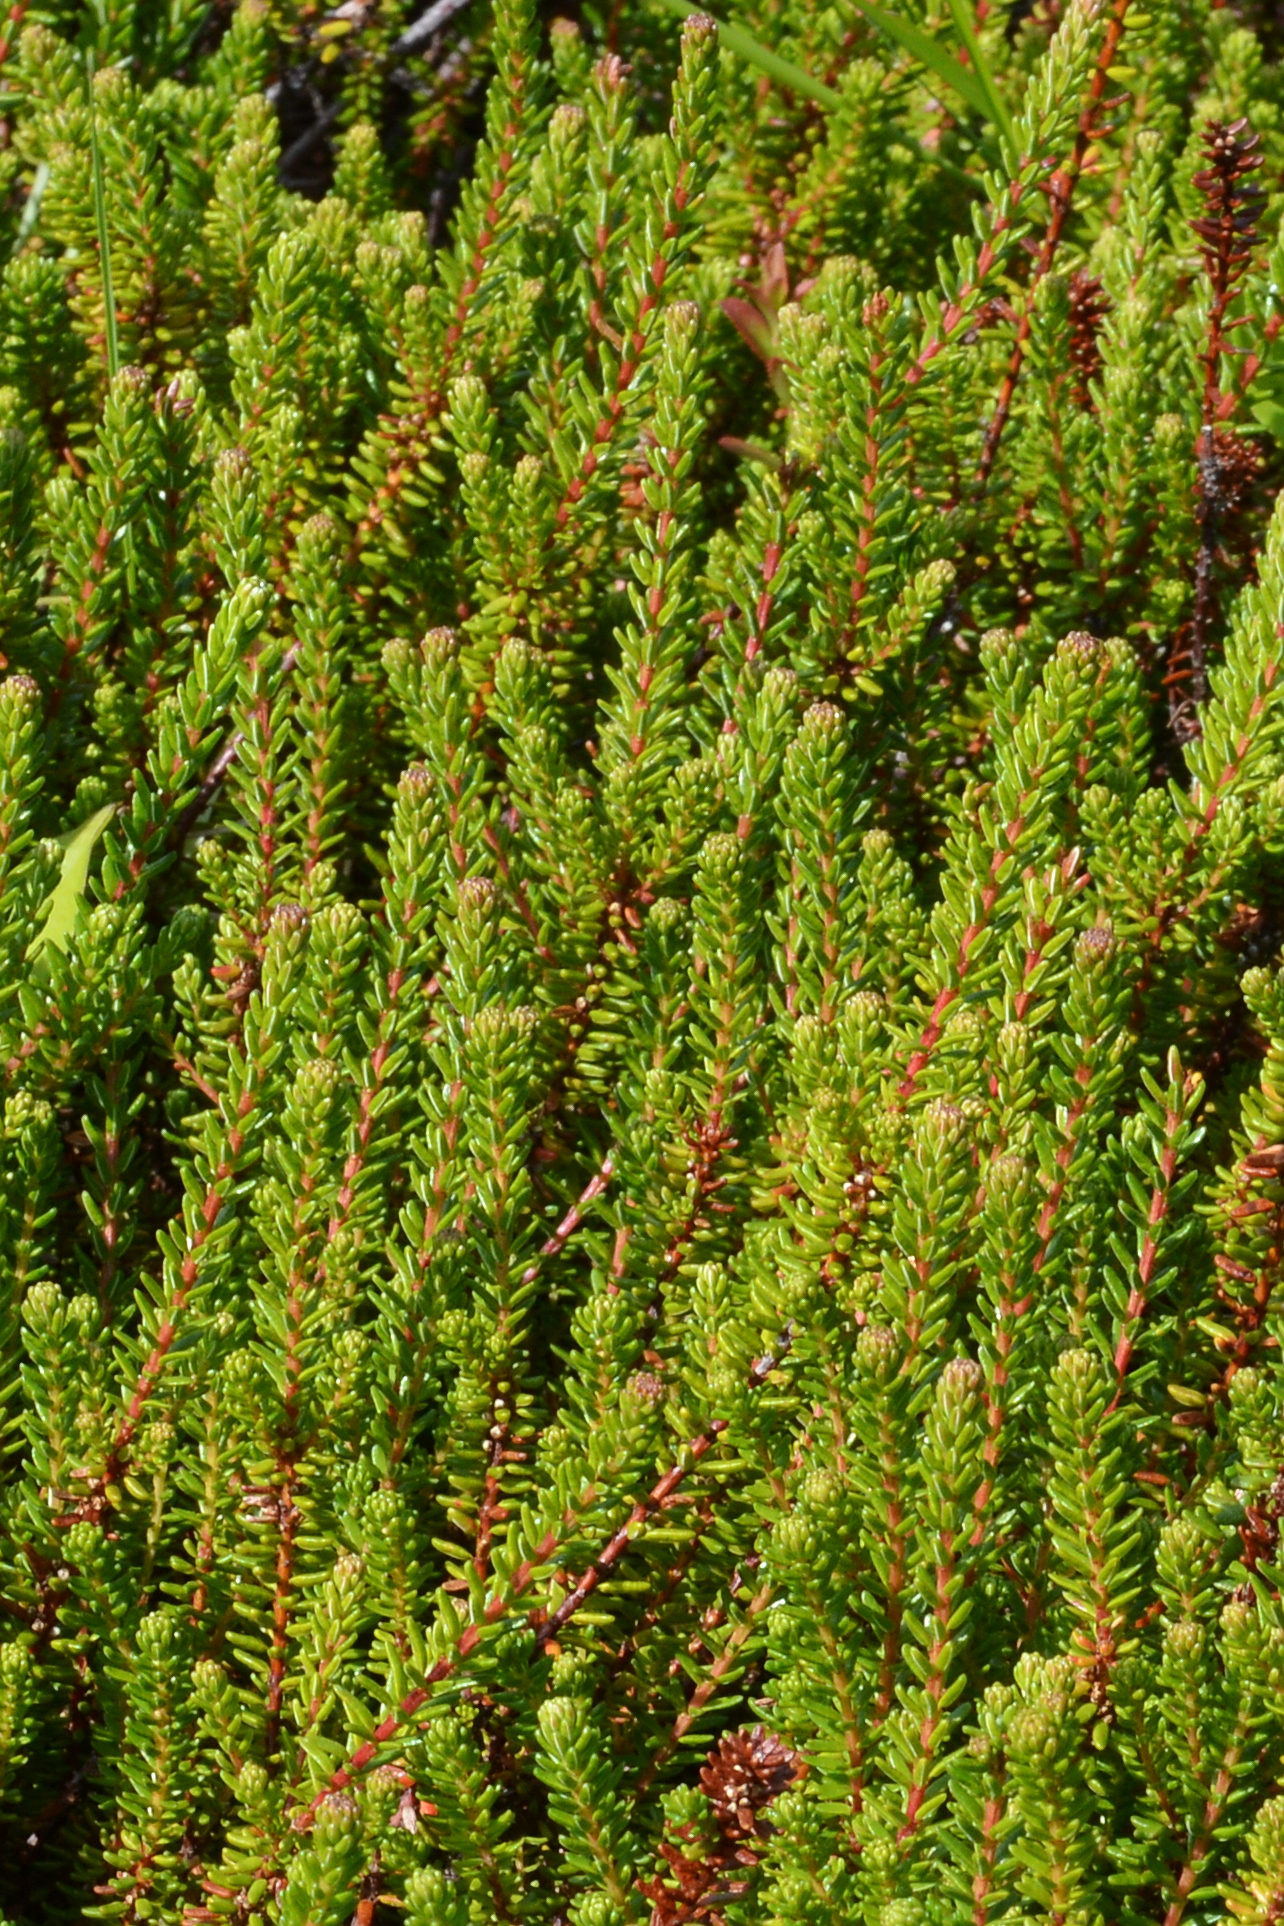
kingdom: Plantae
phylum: Tracheophyta
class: Magnoliopsida
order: Ericales
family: Ericaceae
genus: Empetrum
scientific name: Empetrum nigrum
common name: Black crowberry
